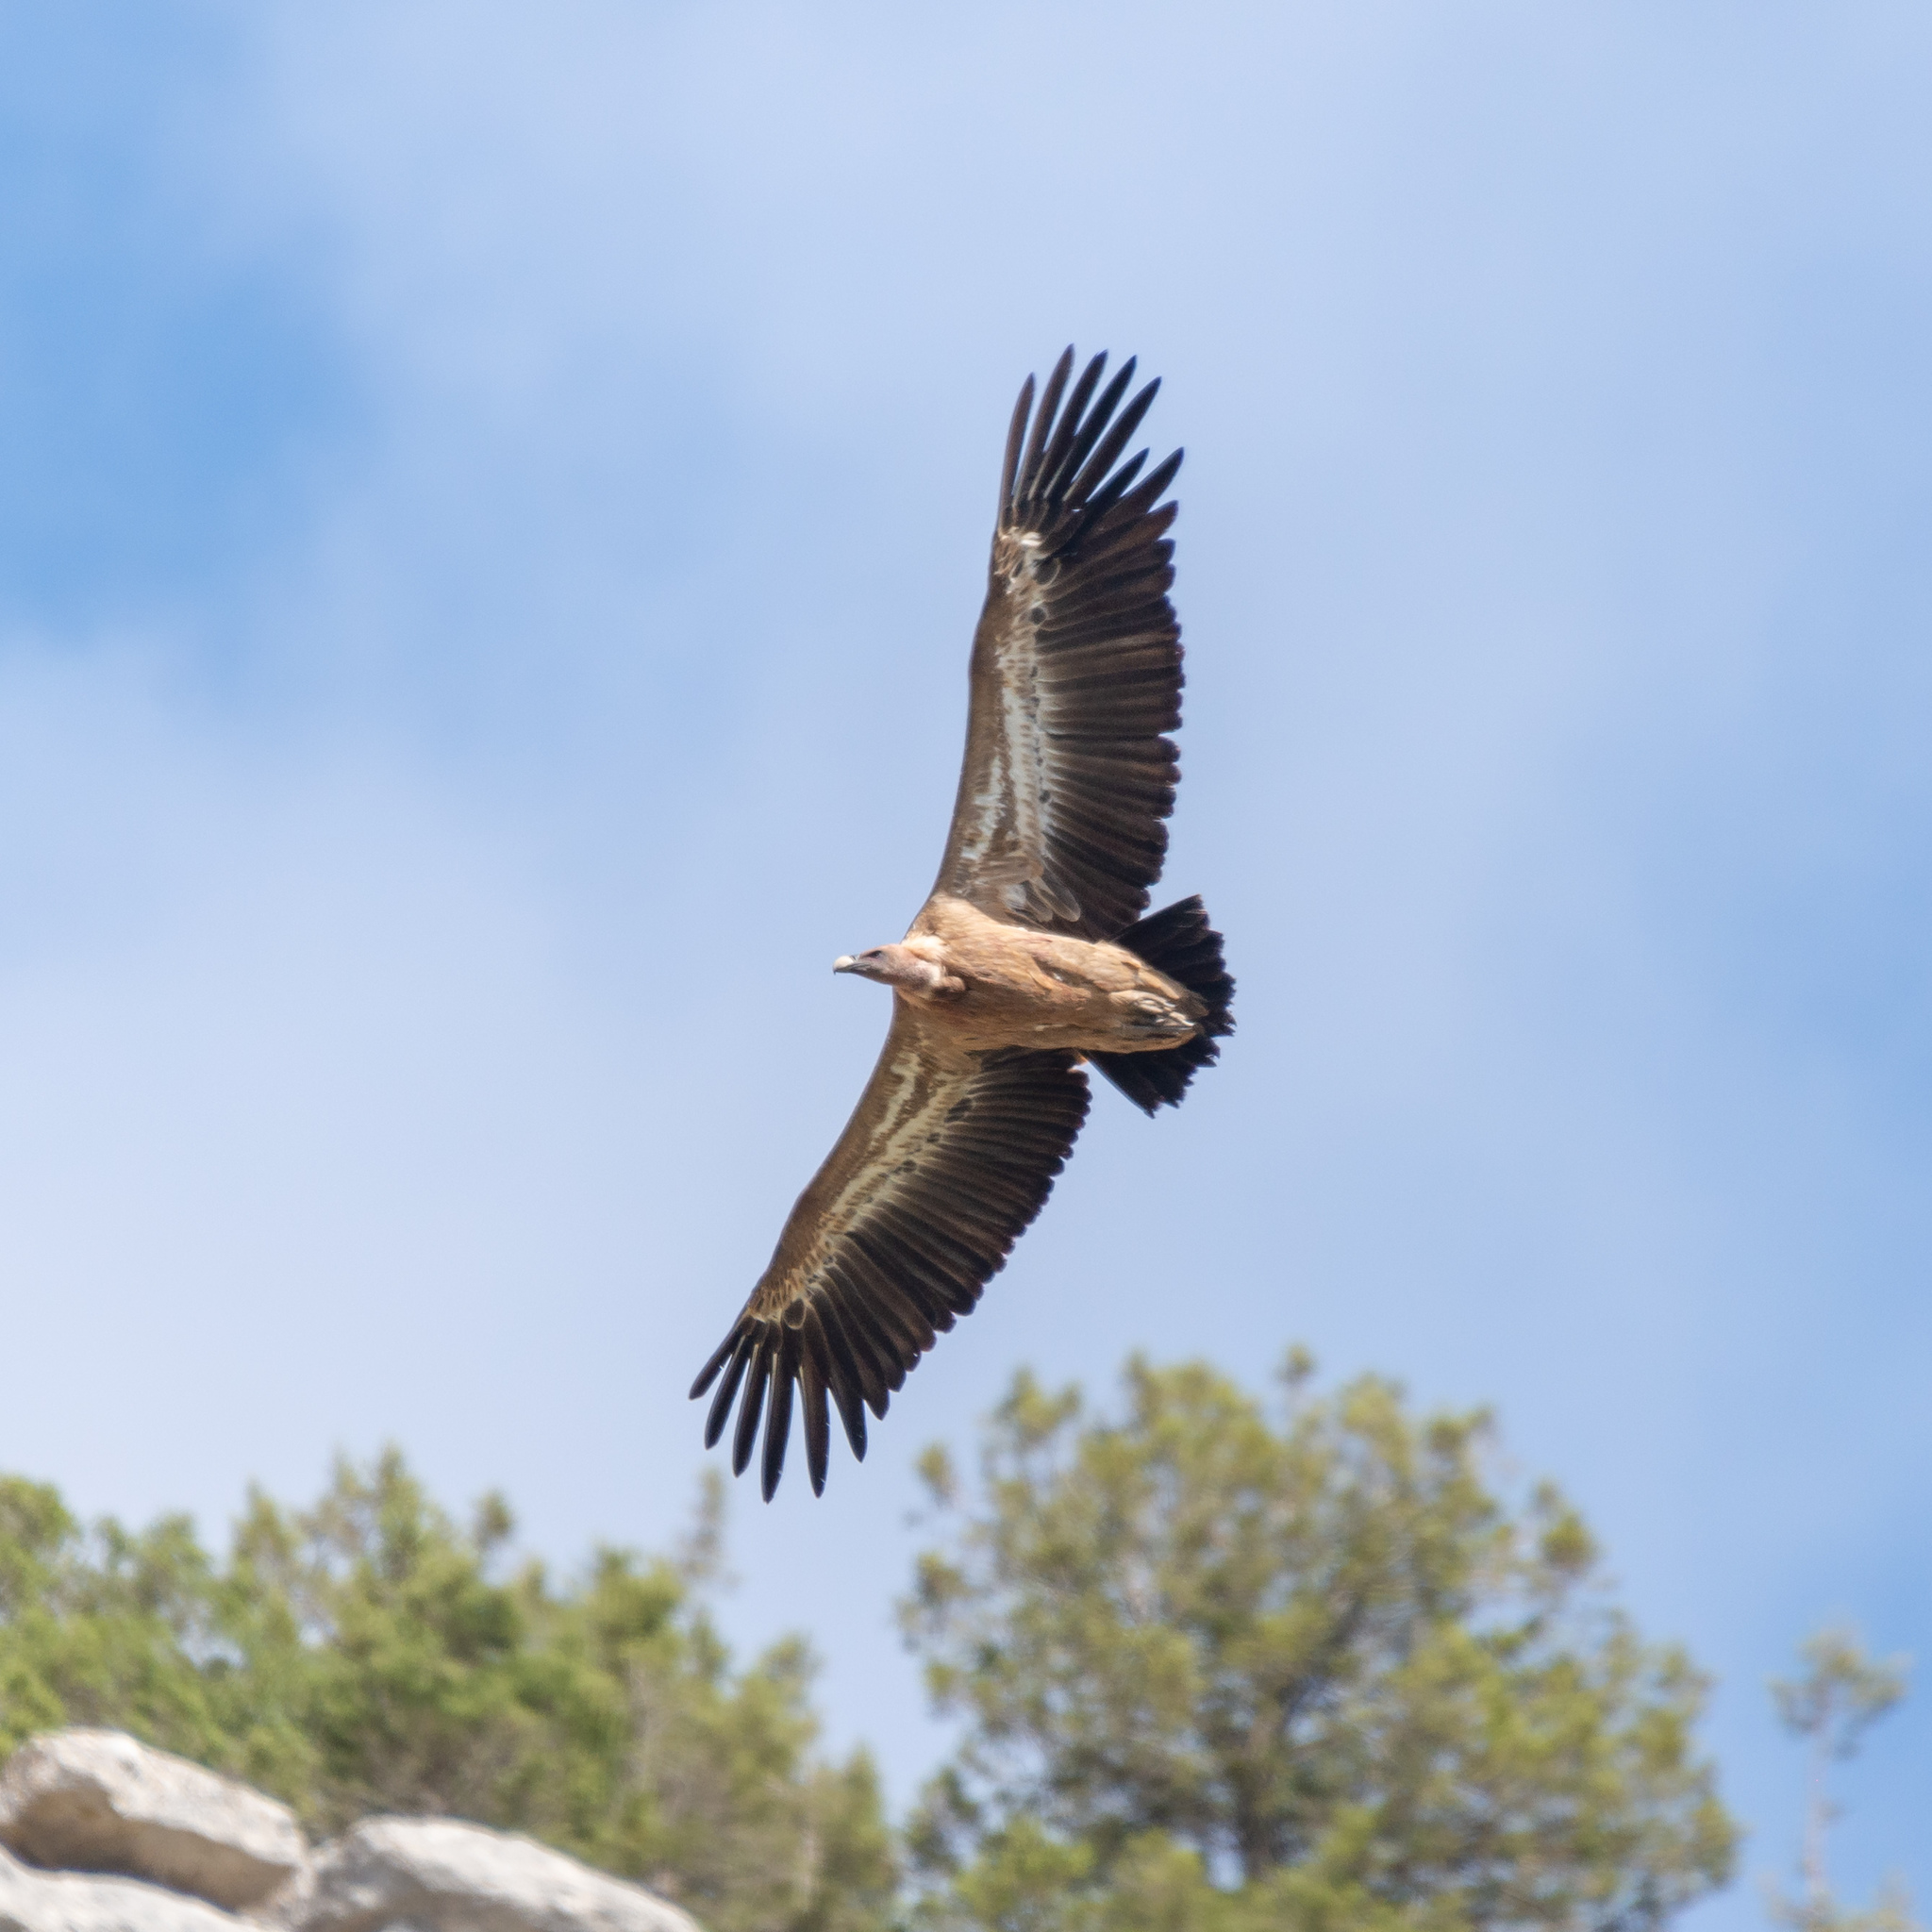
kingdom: Animalia
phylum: Chordata
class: Aves
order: Accipitriformes
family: Accipitridae
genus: Gyps
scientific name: Gyps fulvus
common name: Griffon vulture
